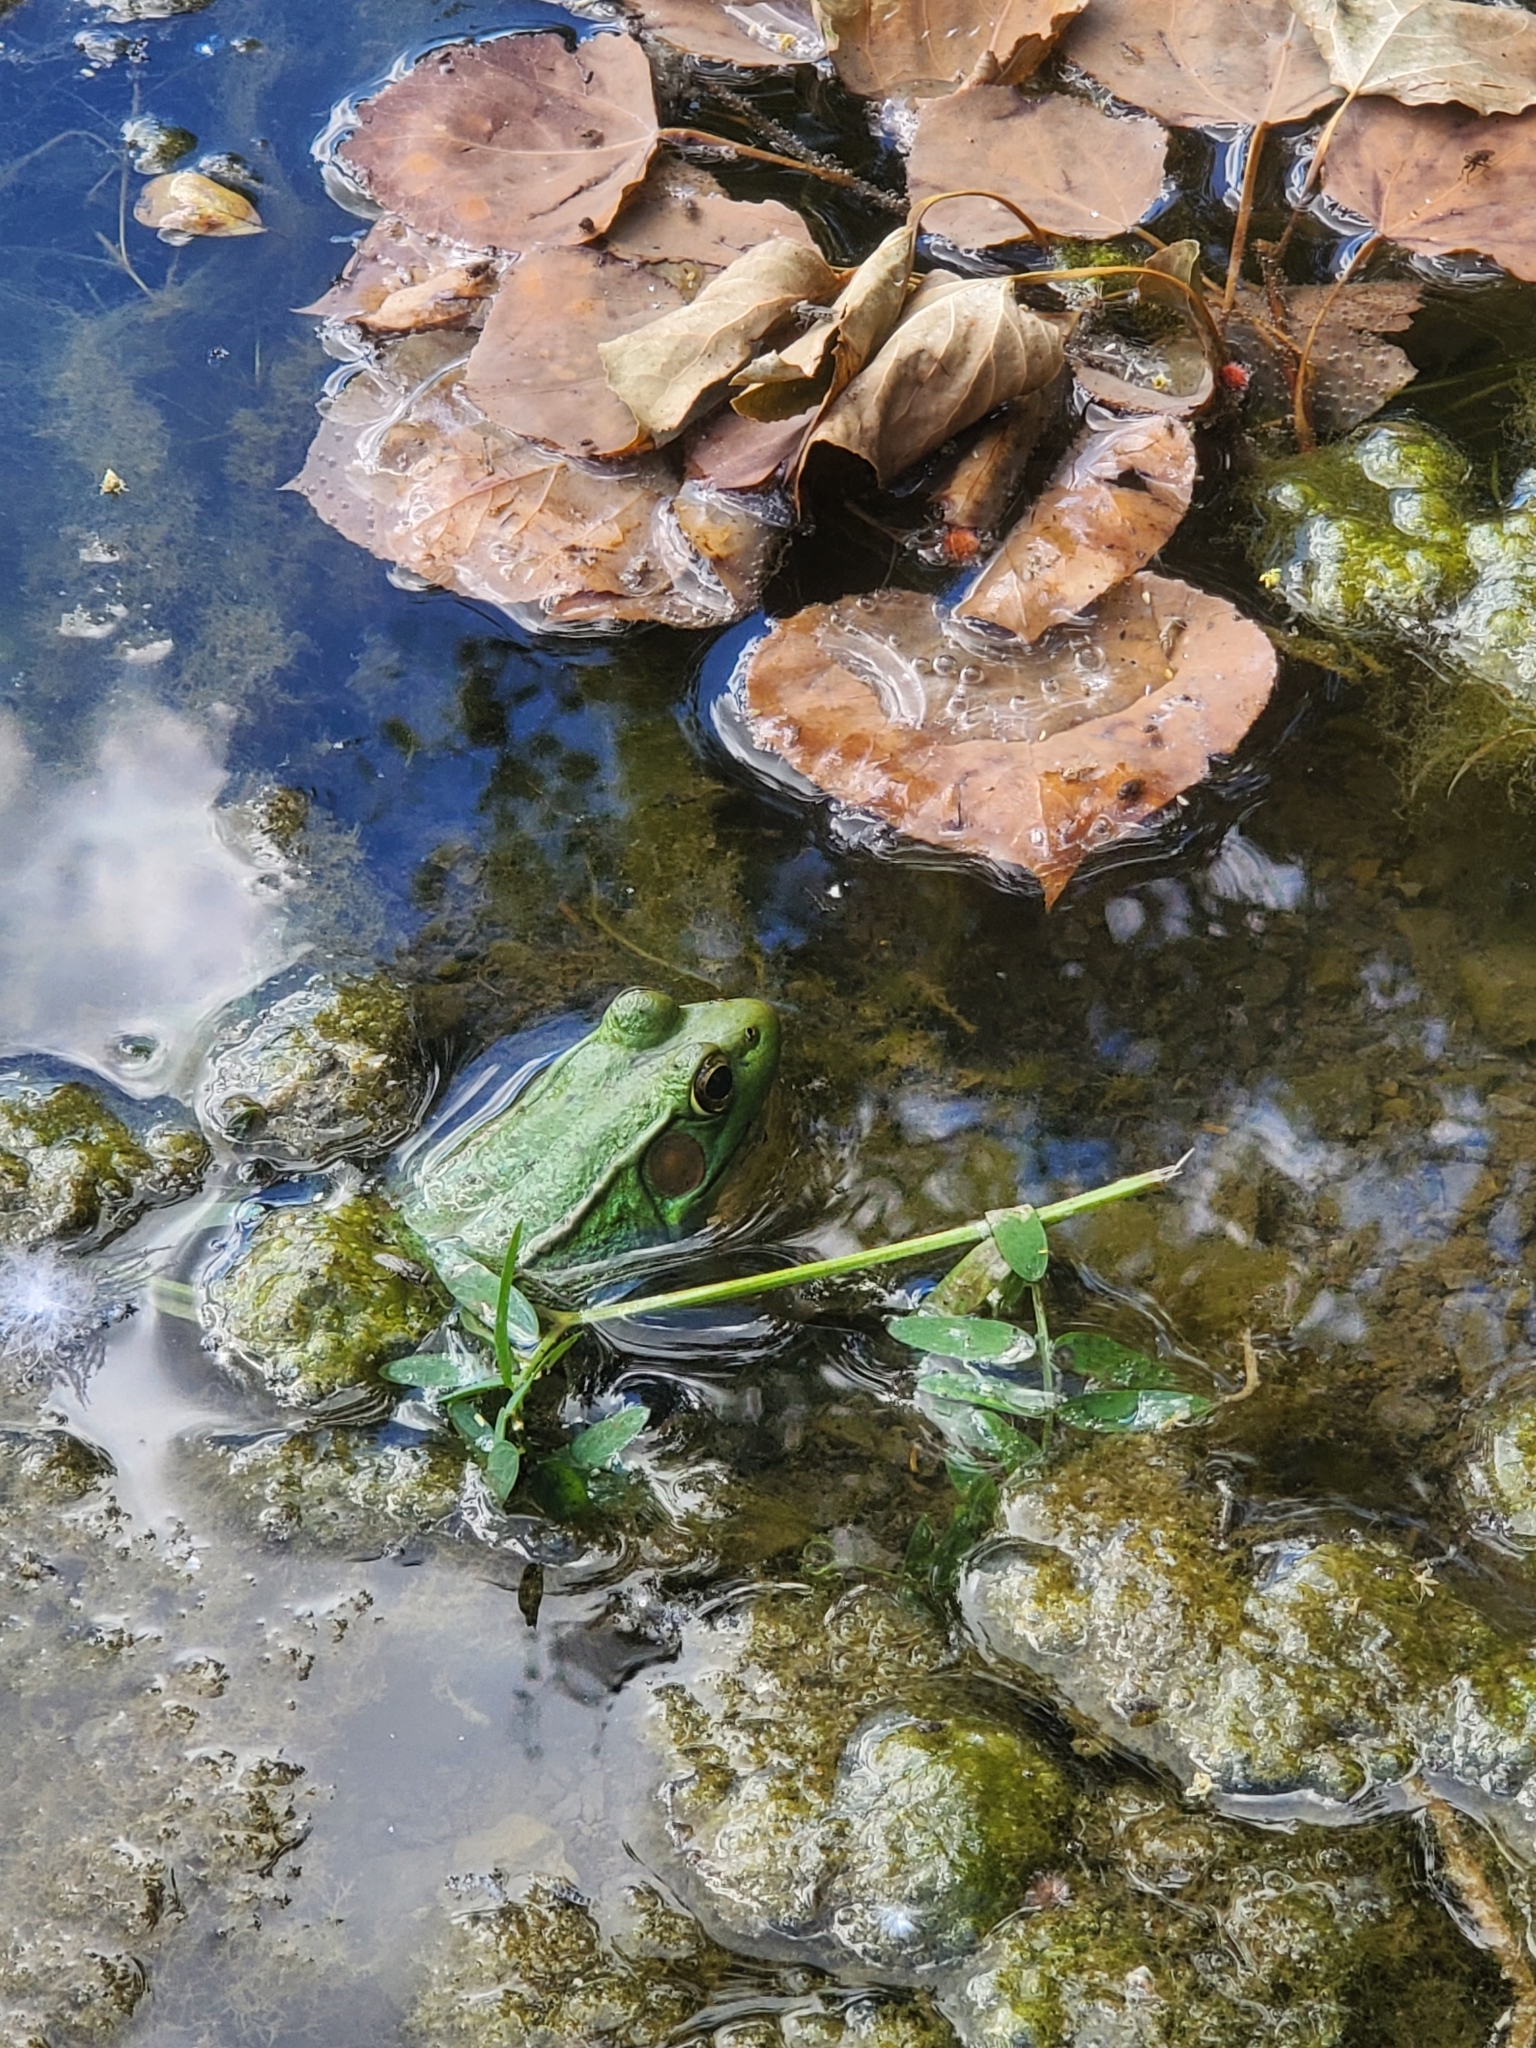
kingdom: Animalia
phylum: Chordata
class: Amphibia
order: Anura
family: Ranidae
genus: Lithobates
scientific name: Lithobates clamitans
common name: Green frog
